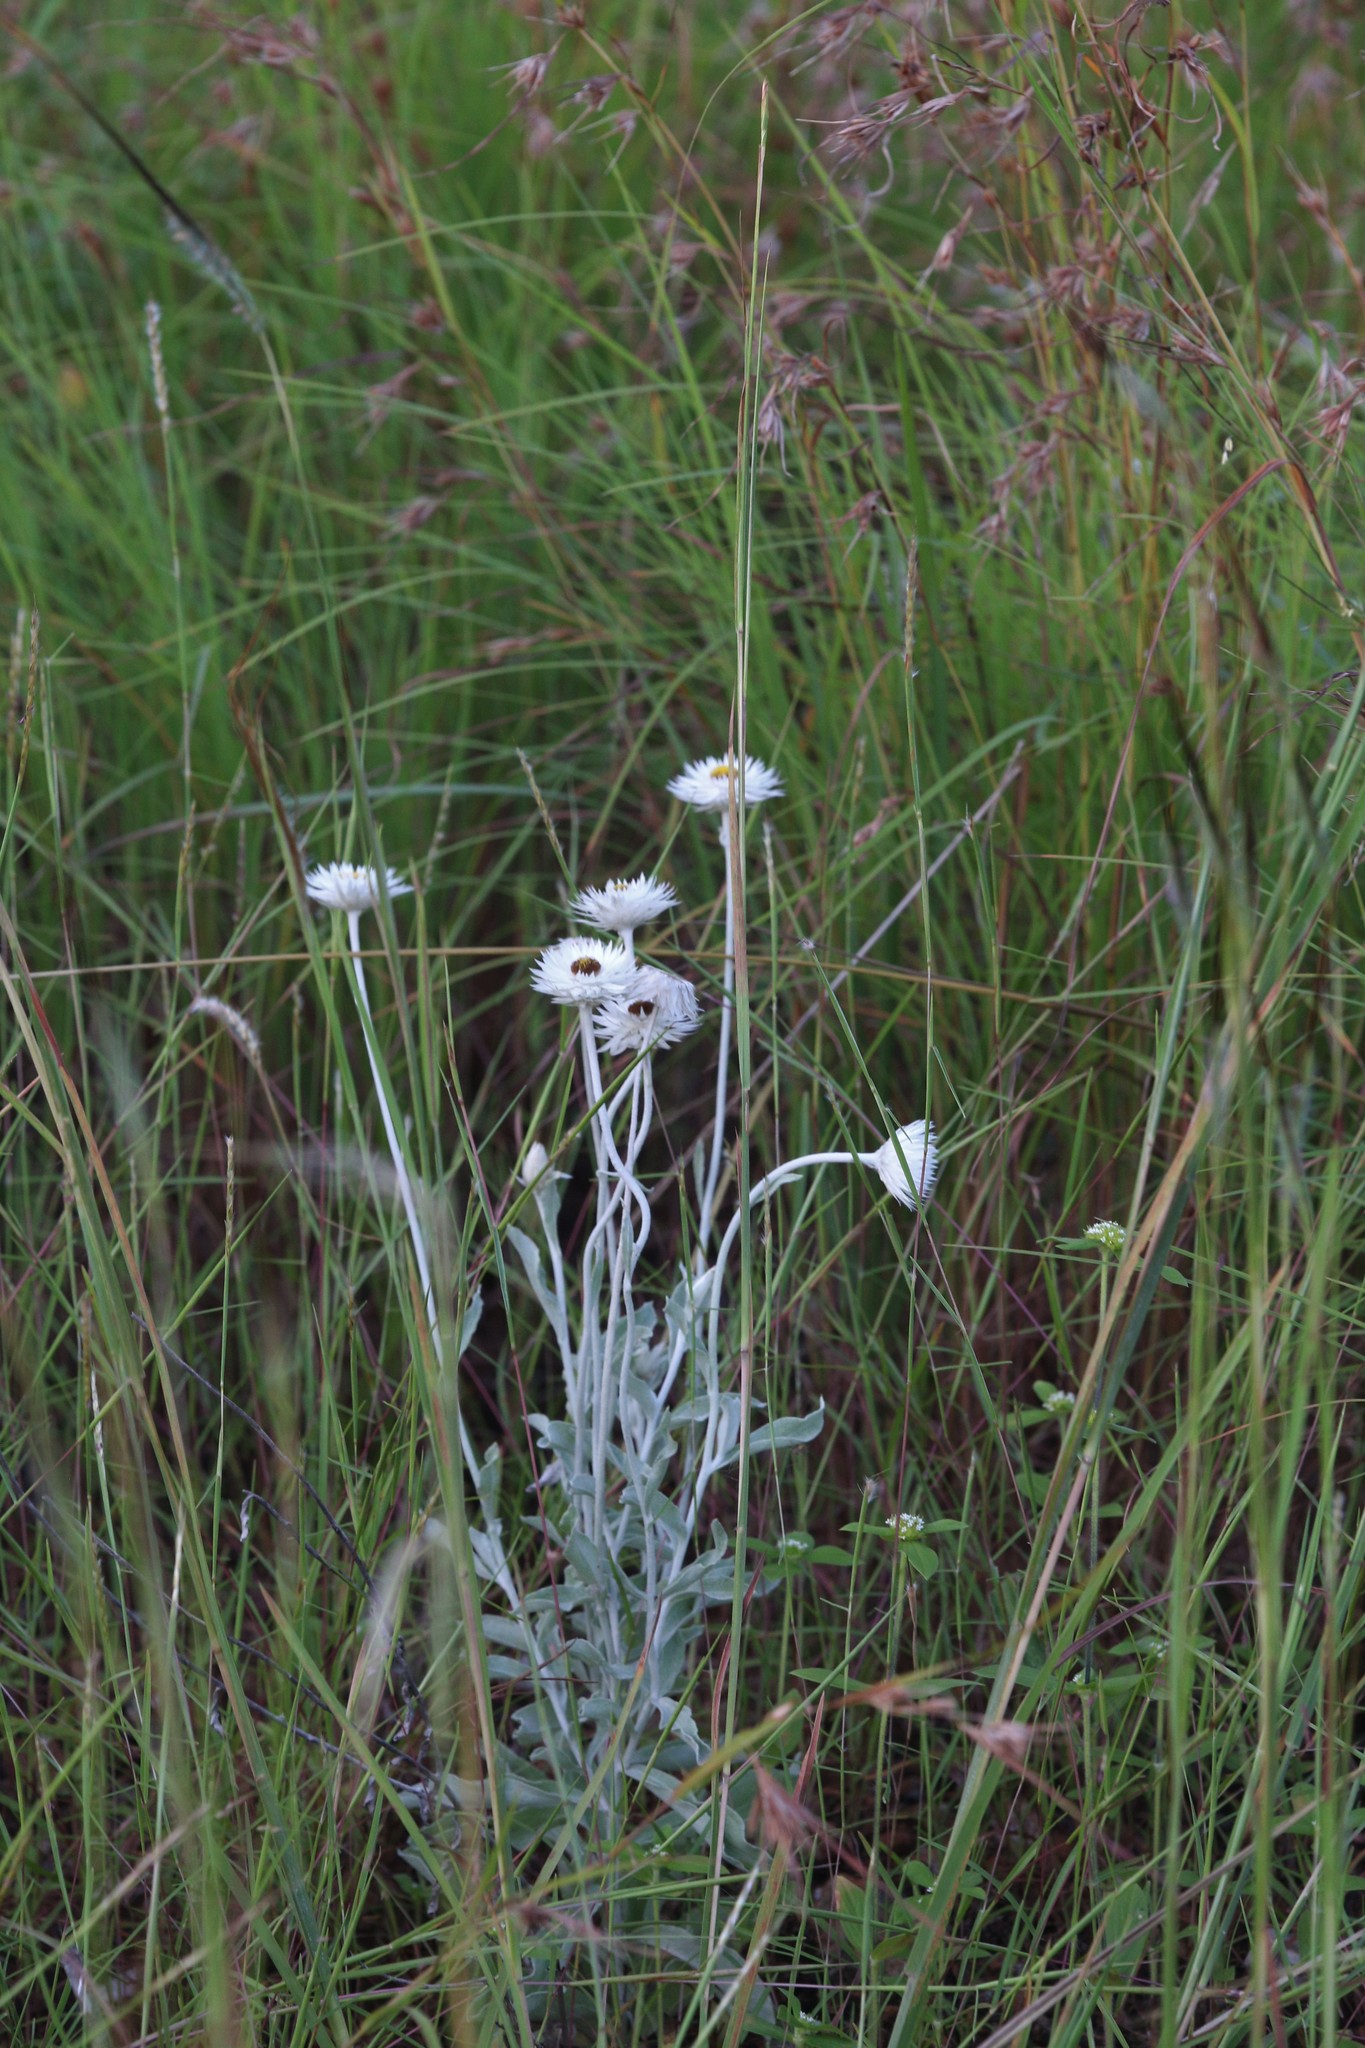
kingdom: Plantae
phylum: Tracheophyta
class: Magnoliopsida
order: Asterales
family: Asteraceae
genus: Coronidium
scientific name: Coronidium newcastlianum
